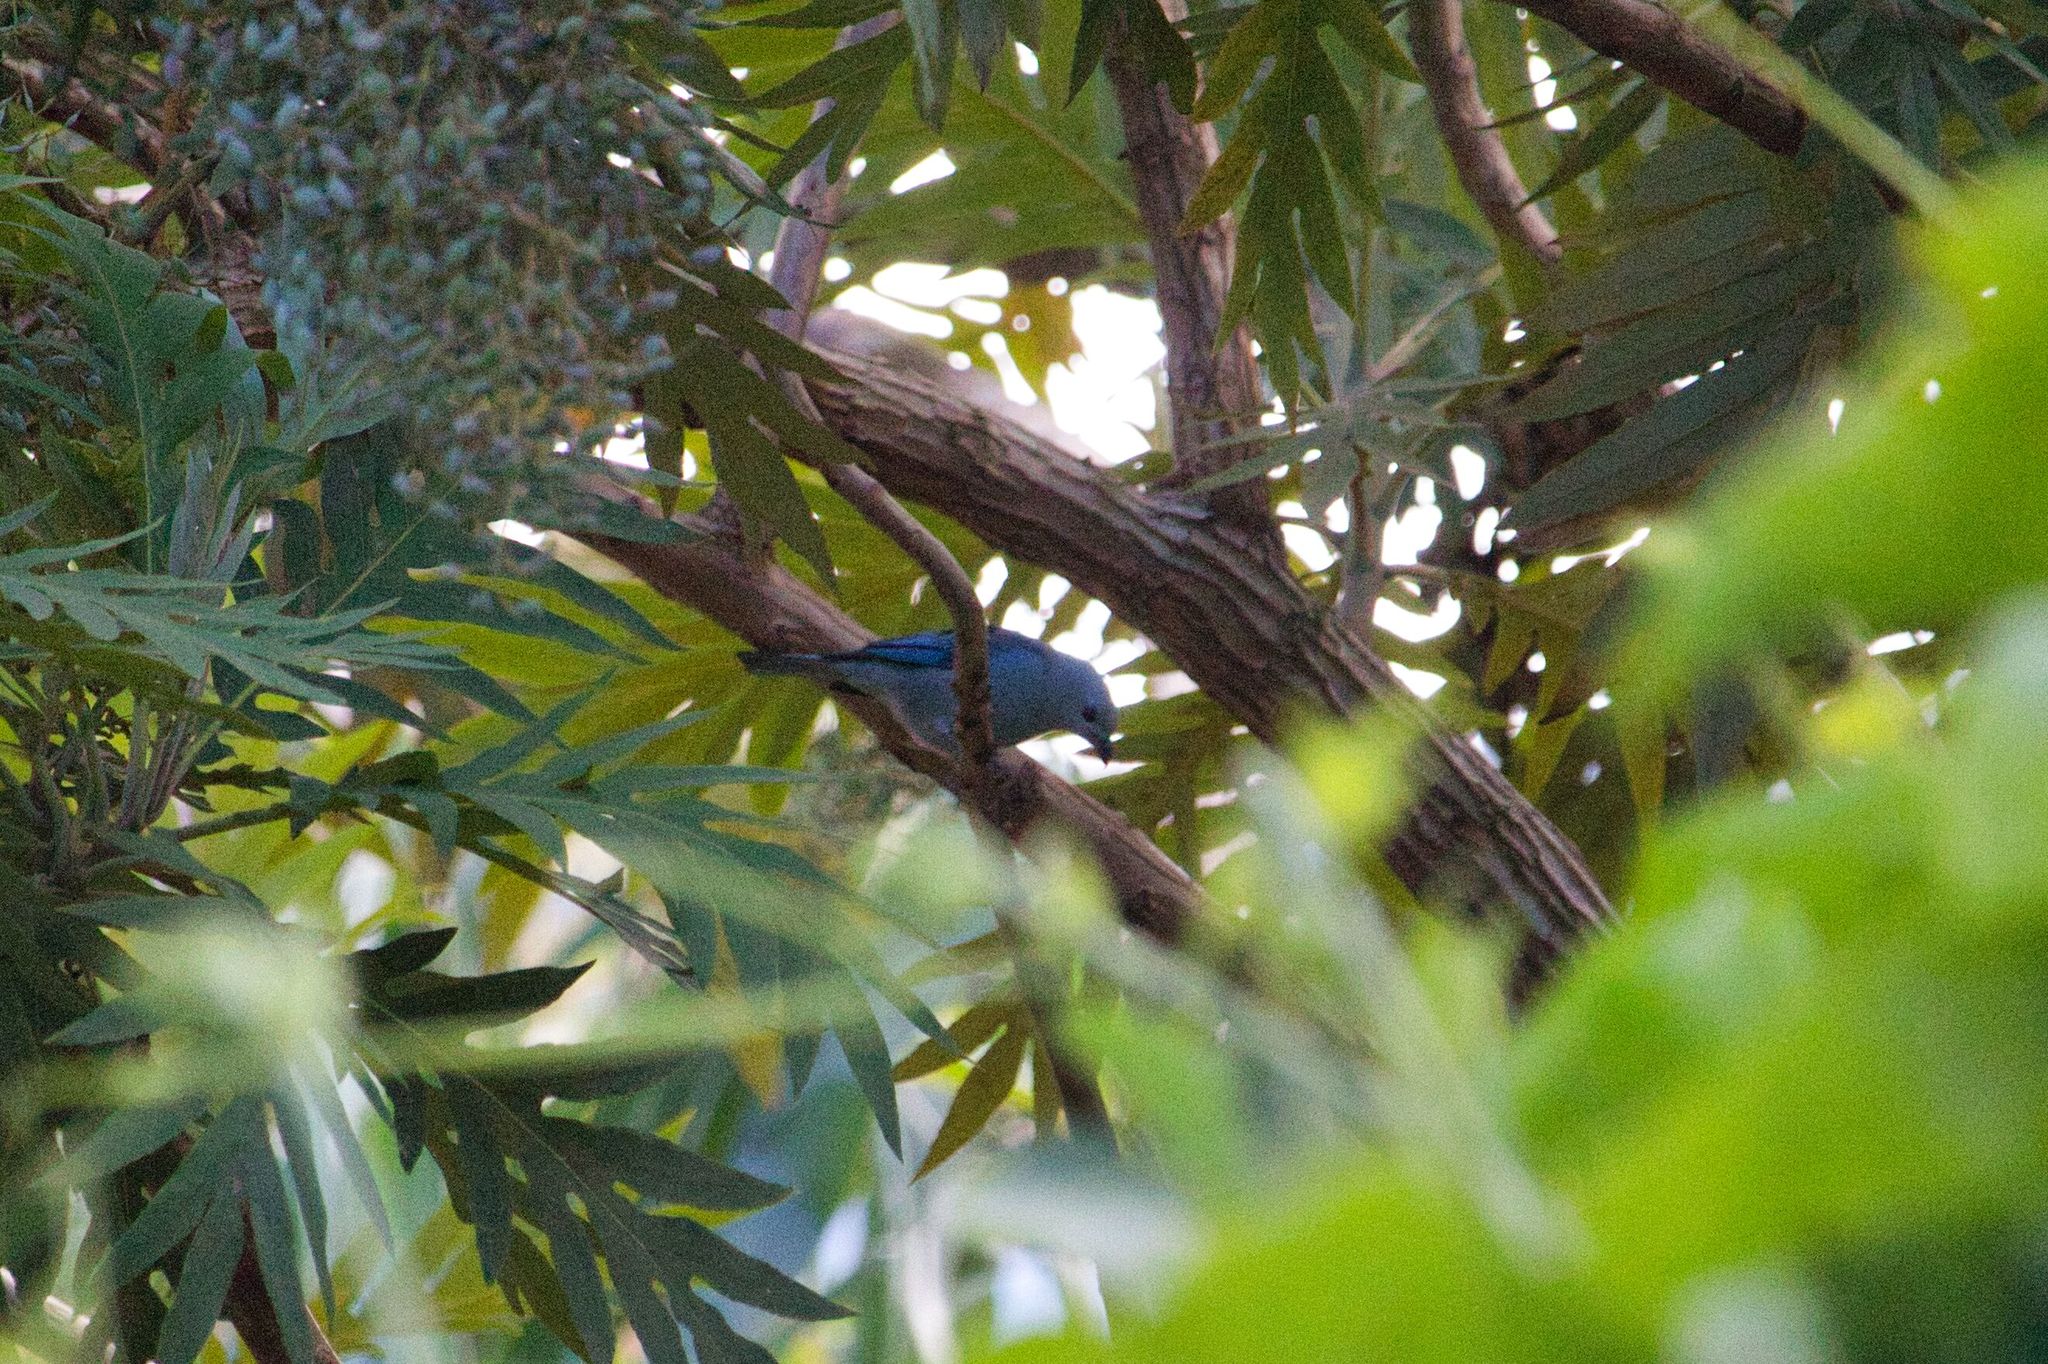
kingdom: Animalia
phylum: Chordata
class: Aves
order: Passeriformes
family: Thraupidae
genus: Thraupis
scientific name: Thraupis episcopus
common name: Blue-grey tanager
